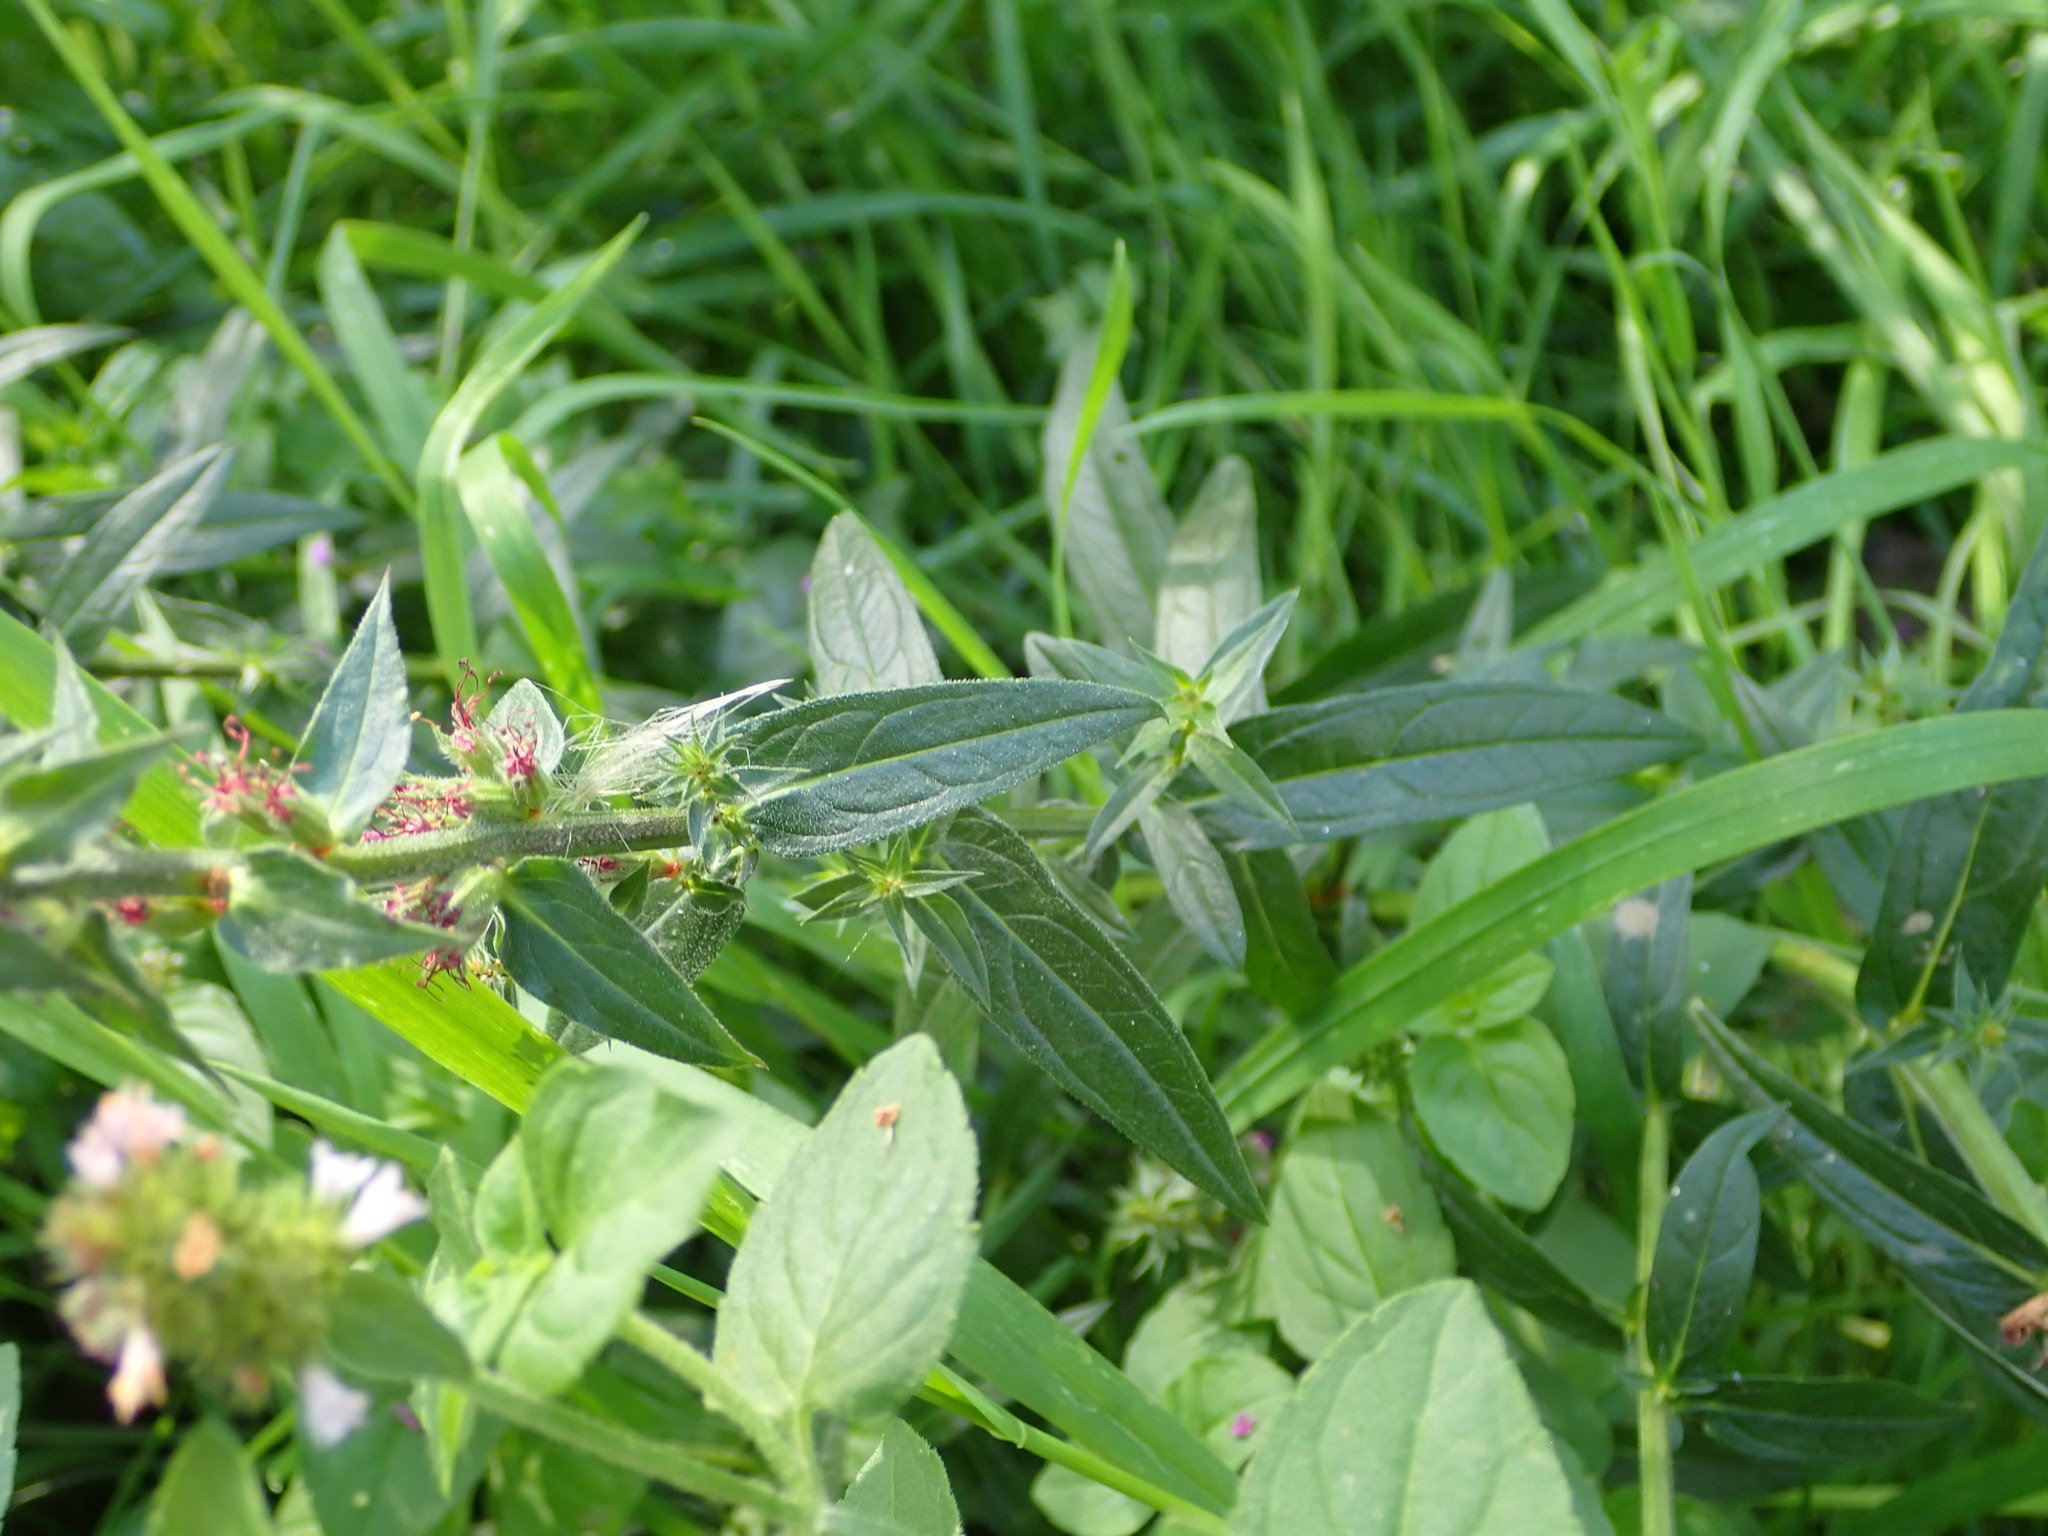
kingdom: Plantae
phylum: Tracheophyta
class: Magnoliopsida
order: Myrtales
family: Lythraceae
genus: Lythrum
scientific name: Lythrum salicaria
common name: Purple loosestrife
